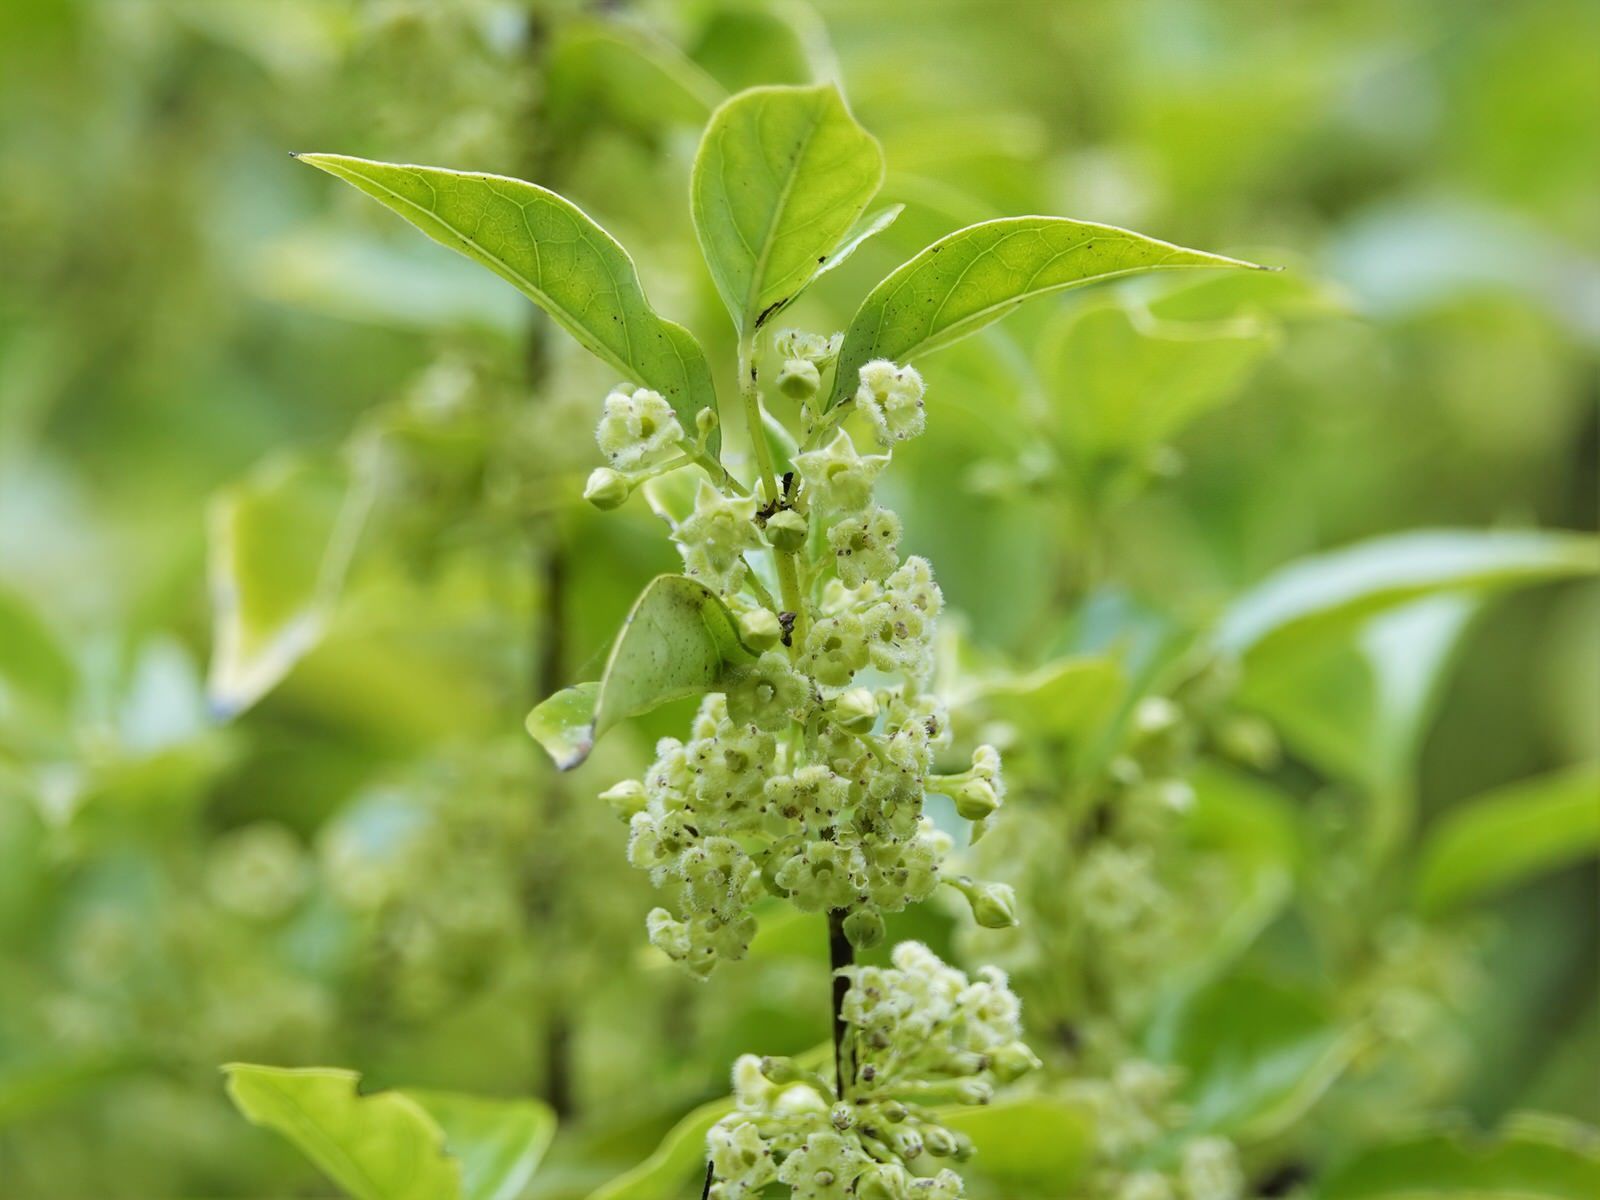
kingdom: Plantae
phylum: Tracheophyta
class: Magnoliopsida
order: Gentianales
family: Loganiaceae
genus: Geniostoma
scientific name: Geniostoma ligustrifolium
